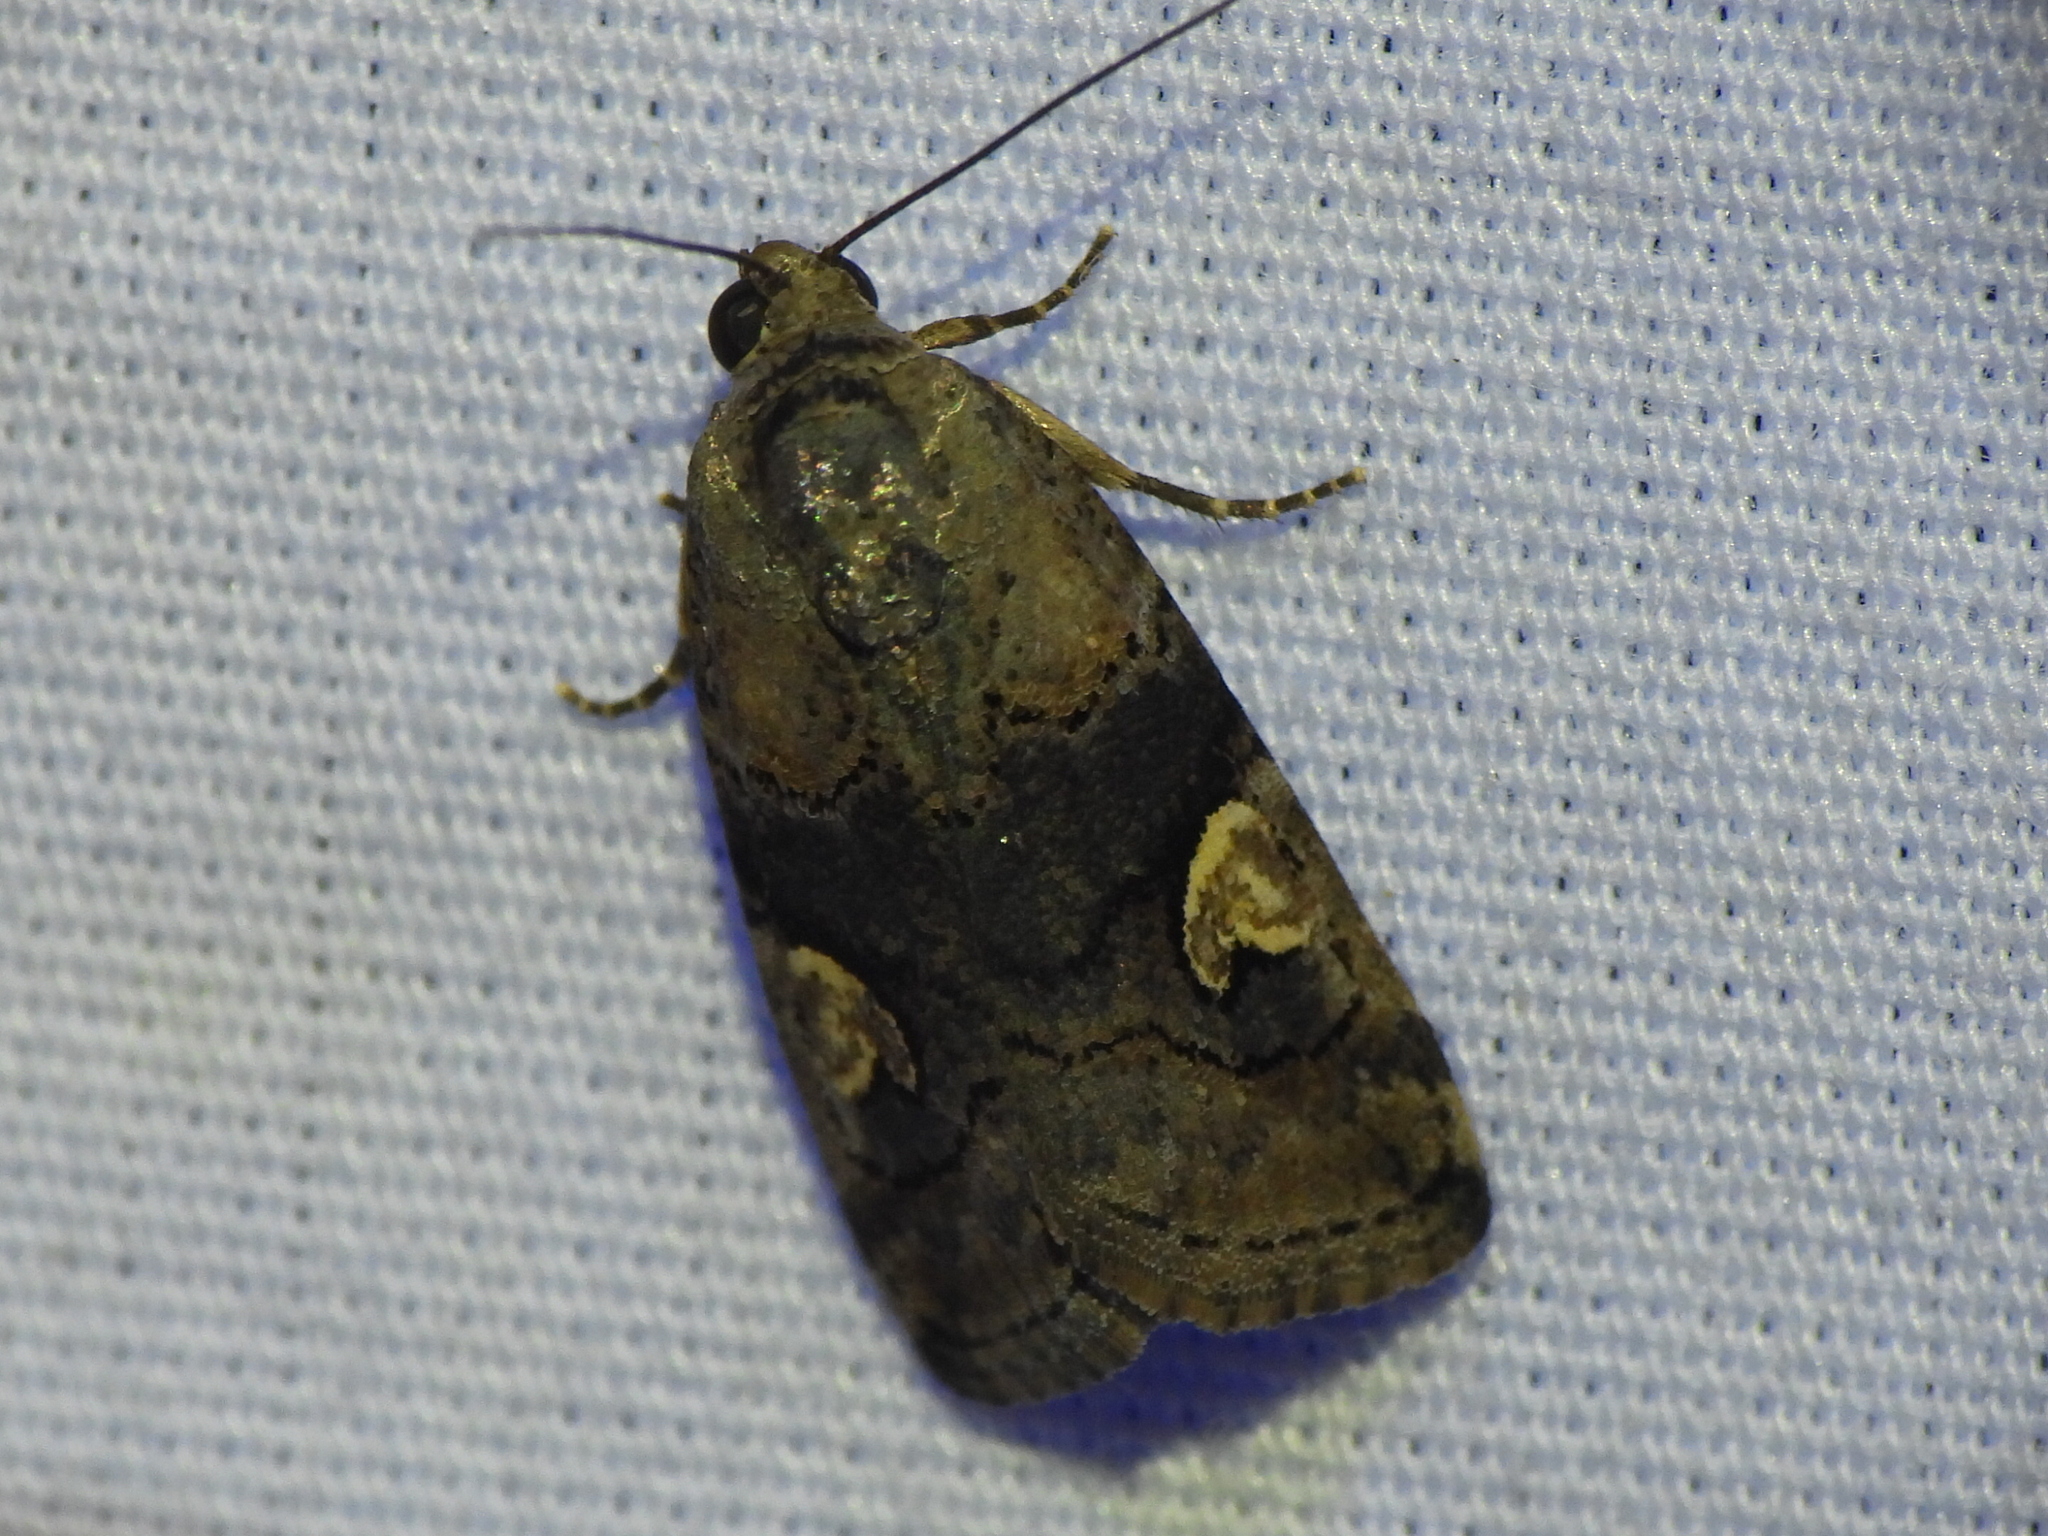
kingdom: Animalia
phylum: Arthropoda
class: Insecta
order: Lepidoptera
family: Noctuidae
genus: Metaponpneumata
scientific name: Metaponpneumata rogenhoferi
